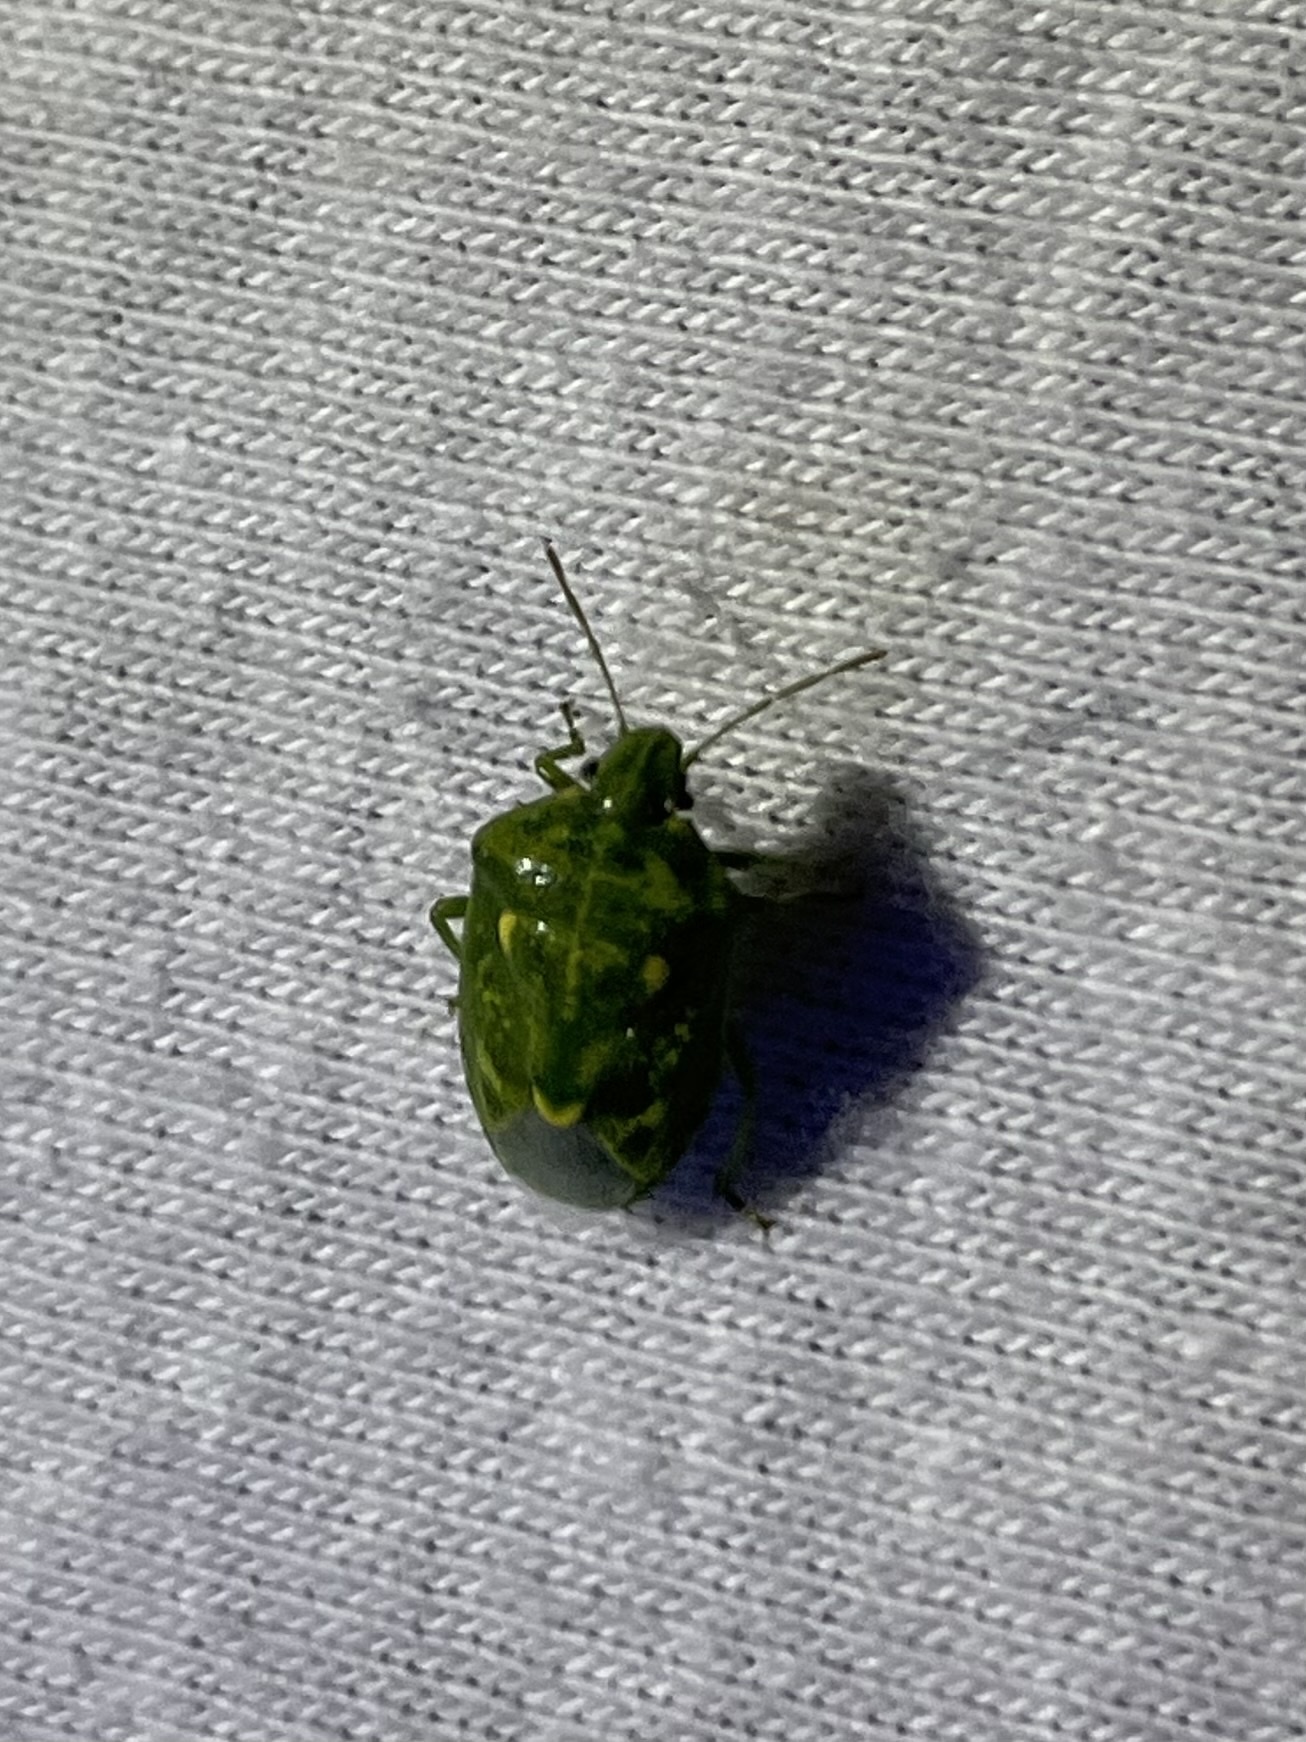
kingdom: Animalia
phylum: Arthropoda
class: Insecta
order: Hemiptera
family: Pentatomidae
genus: Banasa
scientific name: Banasa euchlora
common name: Cedar berry bug
